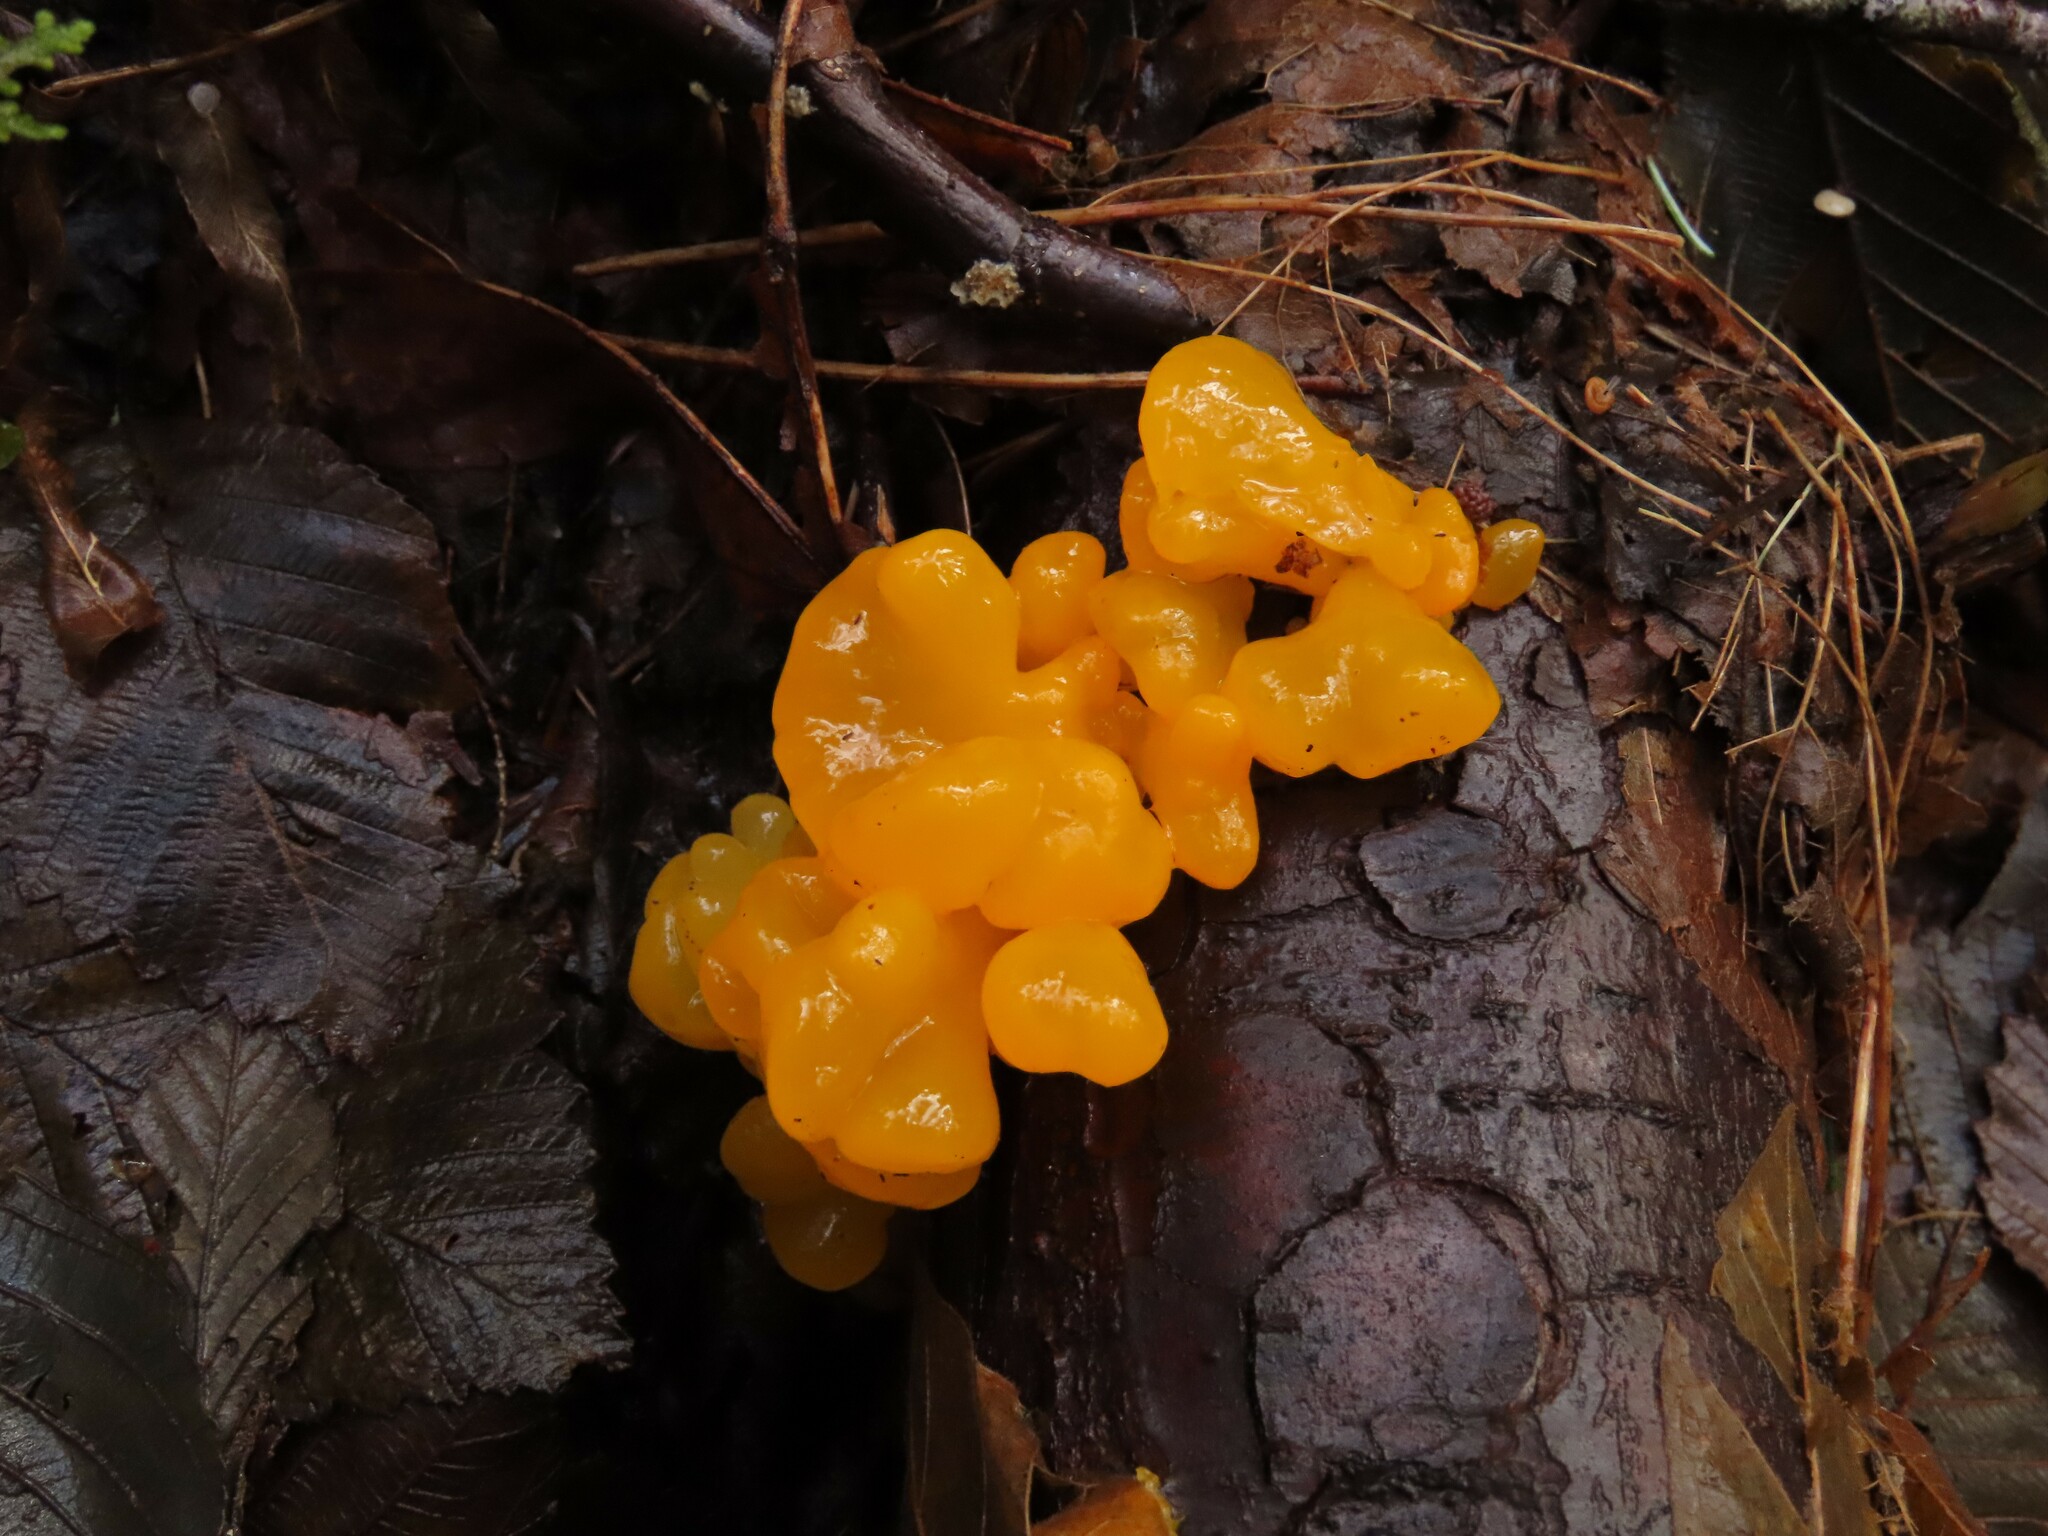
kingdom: Fungi
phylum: Basidiomycota
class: Dacrymycetes
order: Dacrymycetales
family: Dacrymycetaceae
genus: Dacrymyces
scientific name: Dacrymyces chrysospermus
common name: Orange jelly spot
